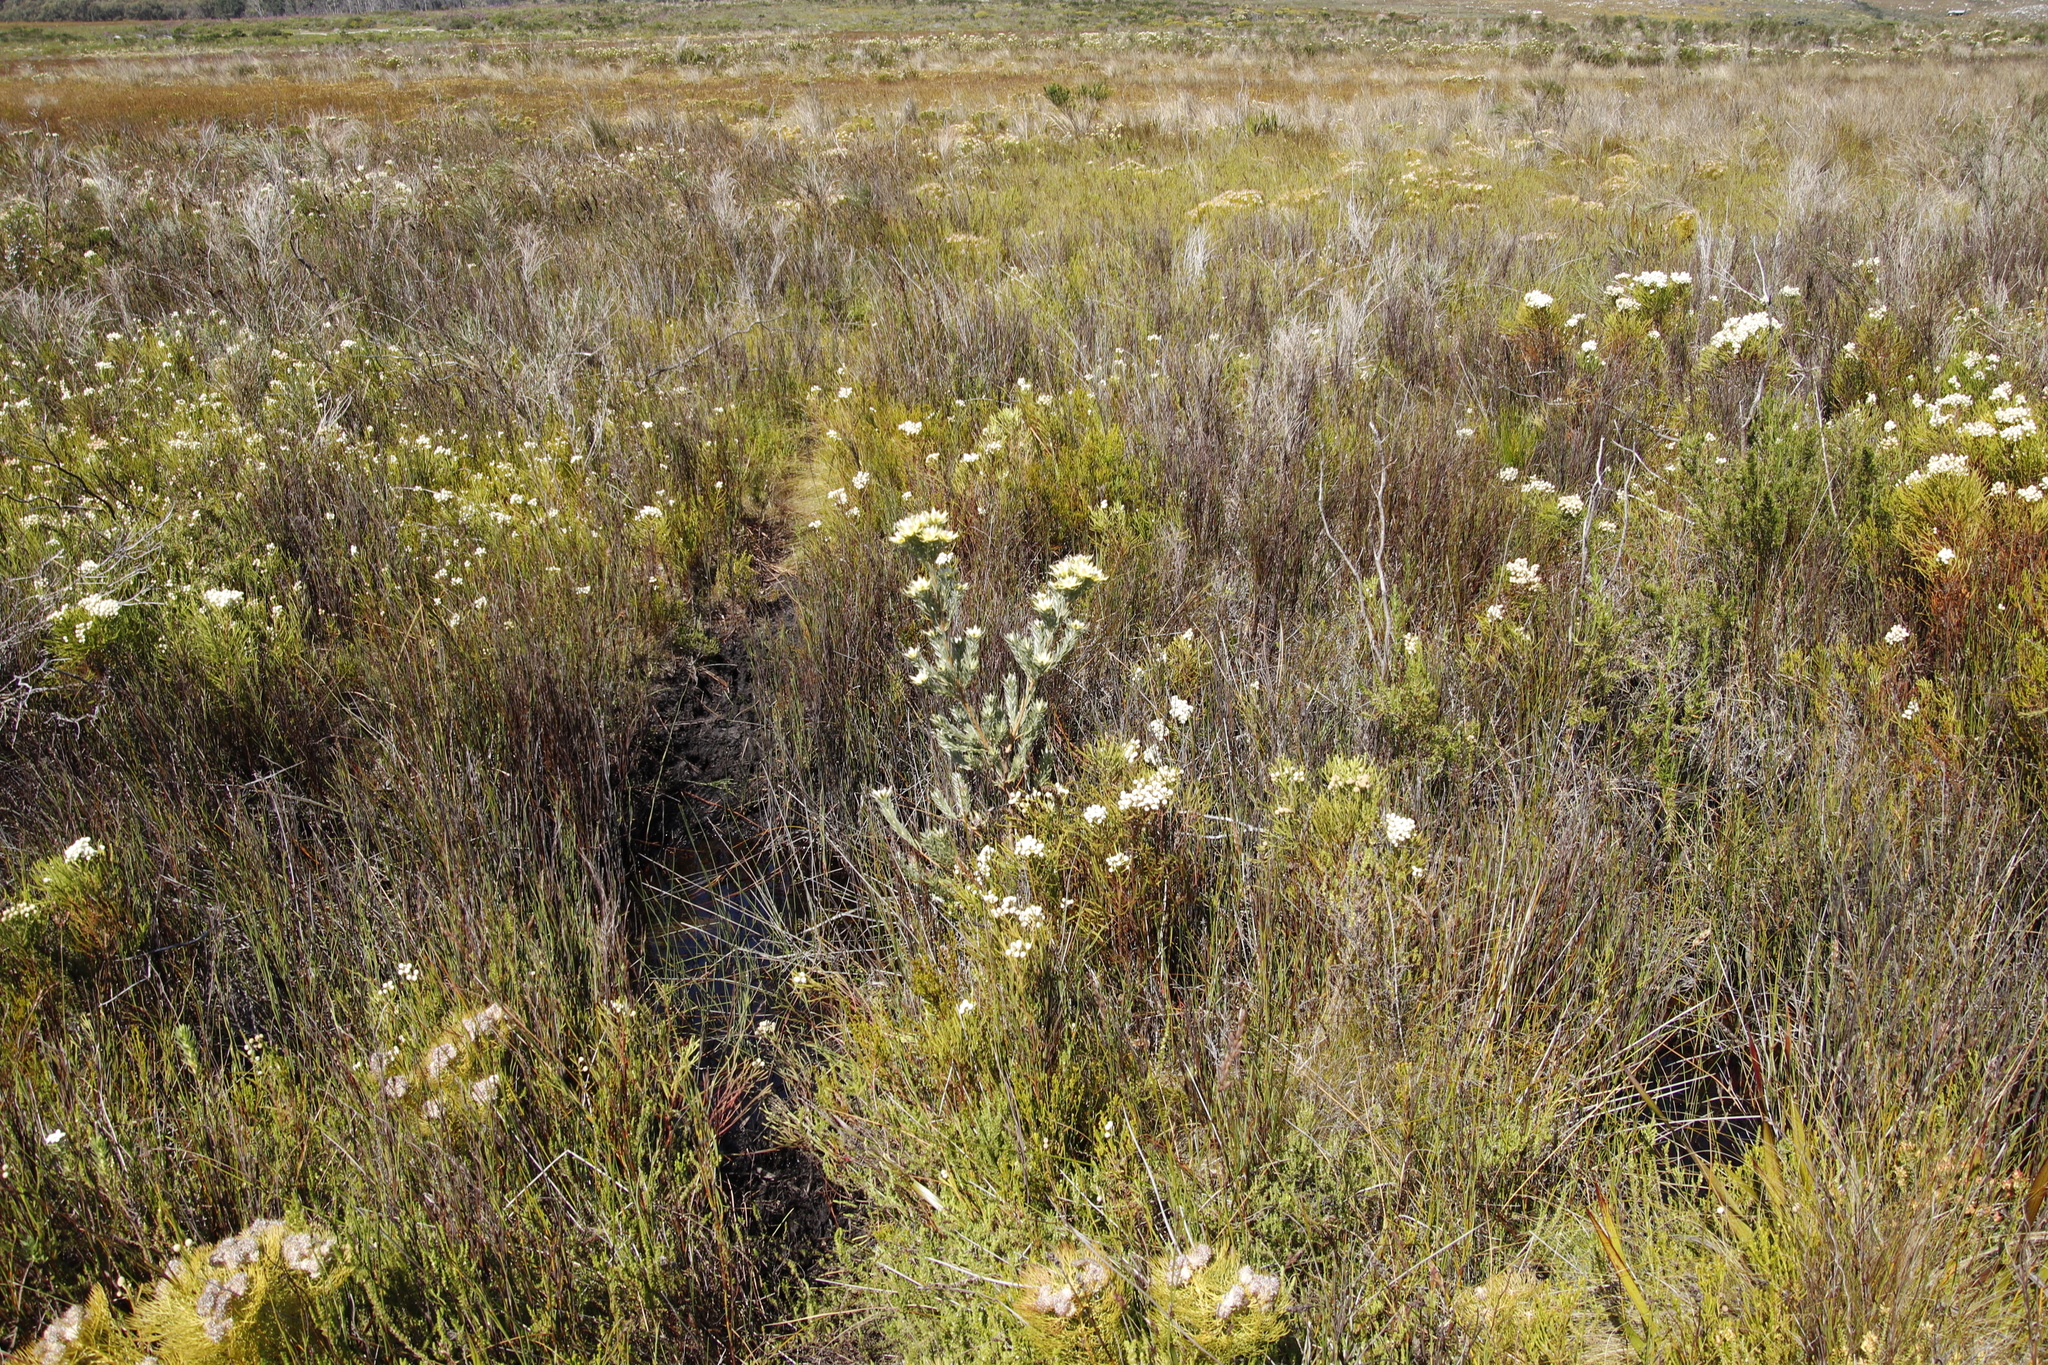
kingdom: Plantae
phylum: Tracheophyta
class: Magnoliopsida
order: Proteales
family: Proteaceae
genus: Leucadendron
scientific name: Leucadendron floridum
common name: Flats conebush
